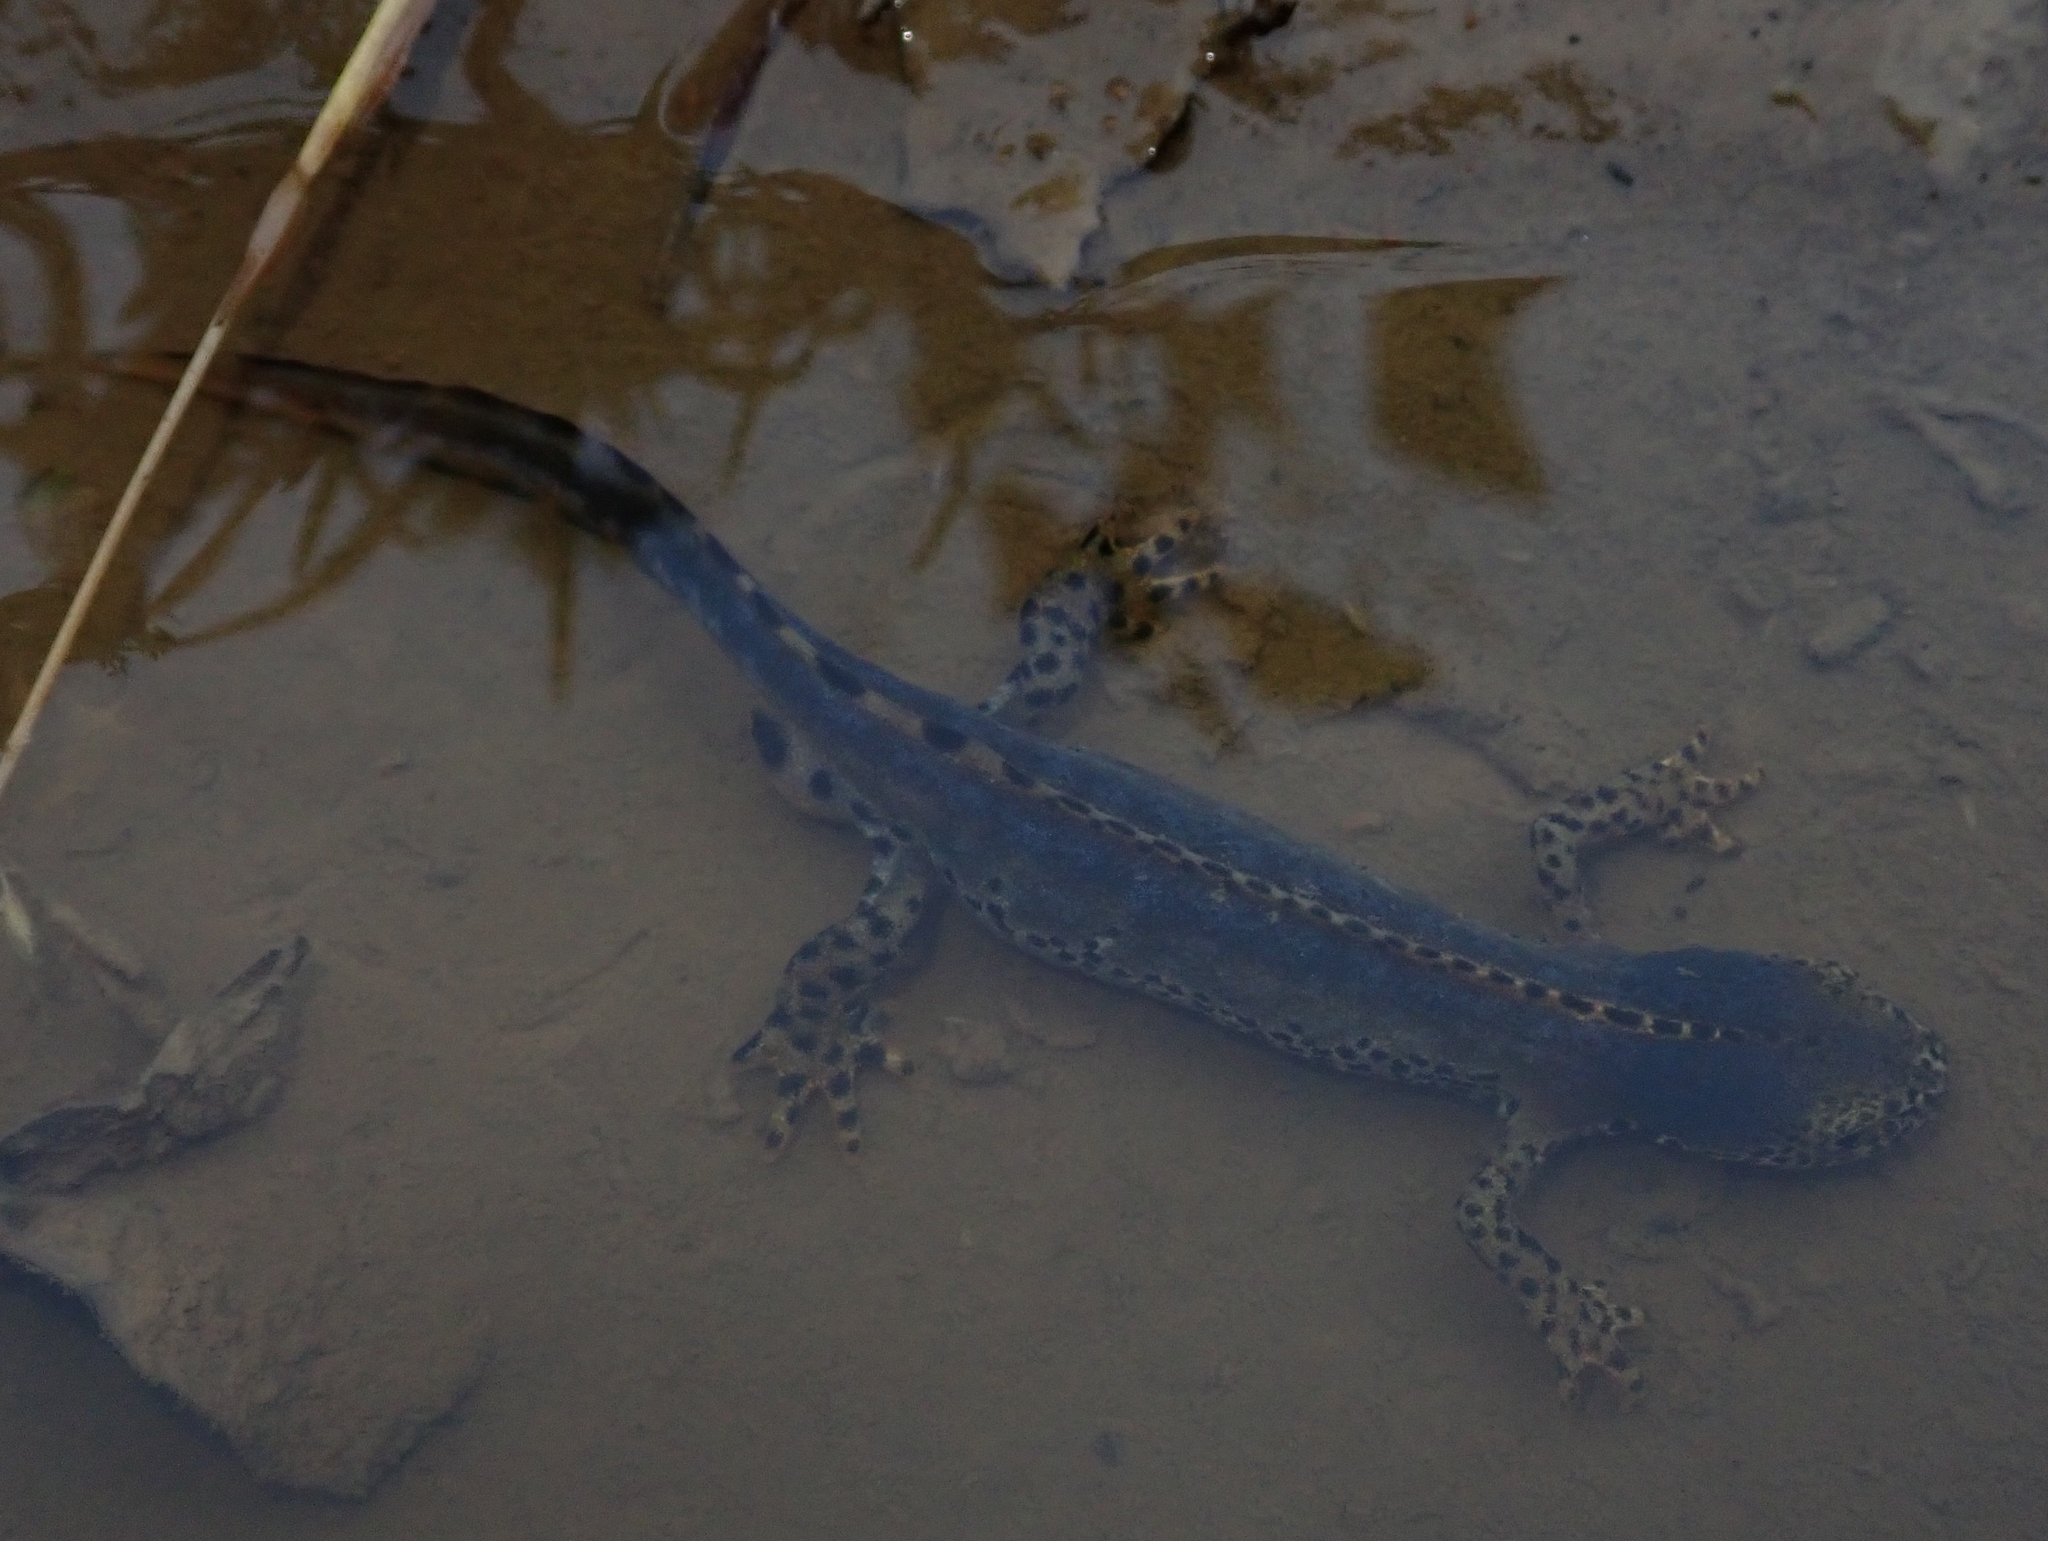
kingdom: Animalia
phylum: Chordata
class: Amphibia
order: Caudata
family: Salamandridae
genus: Ichthyosaura
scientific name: Ichthyosaura alpestris
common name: Alpine newt
